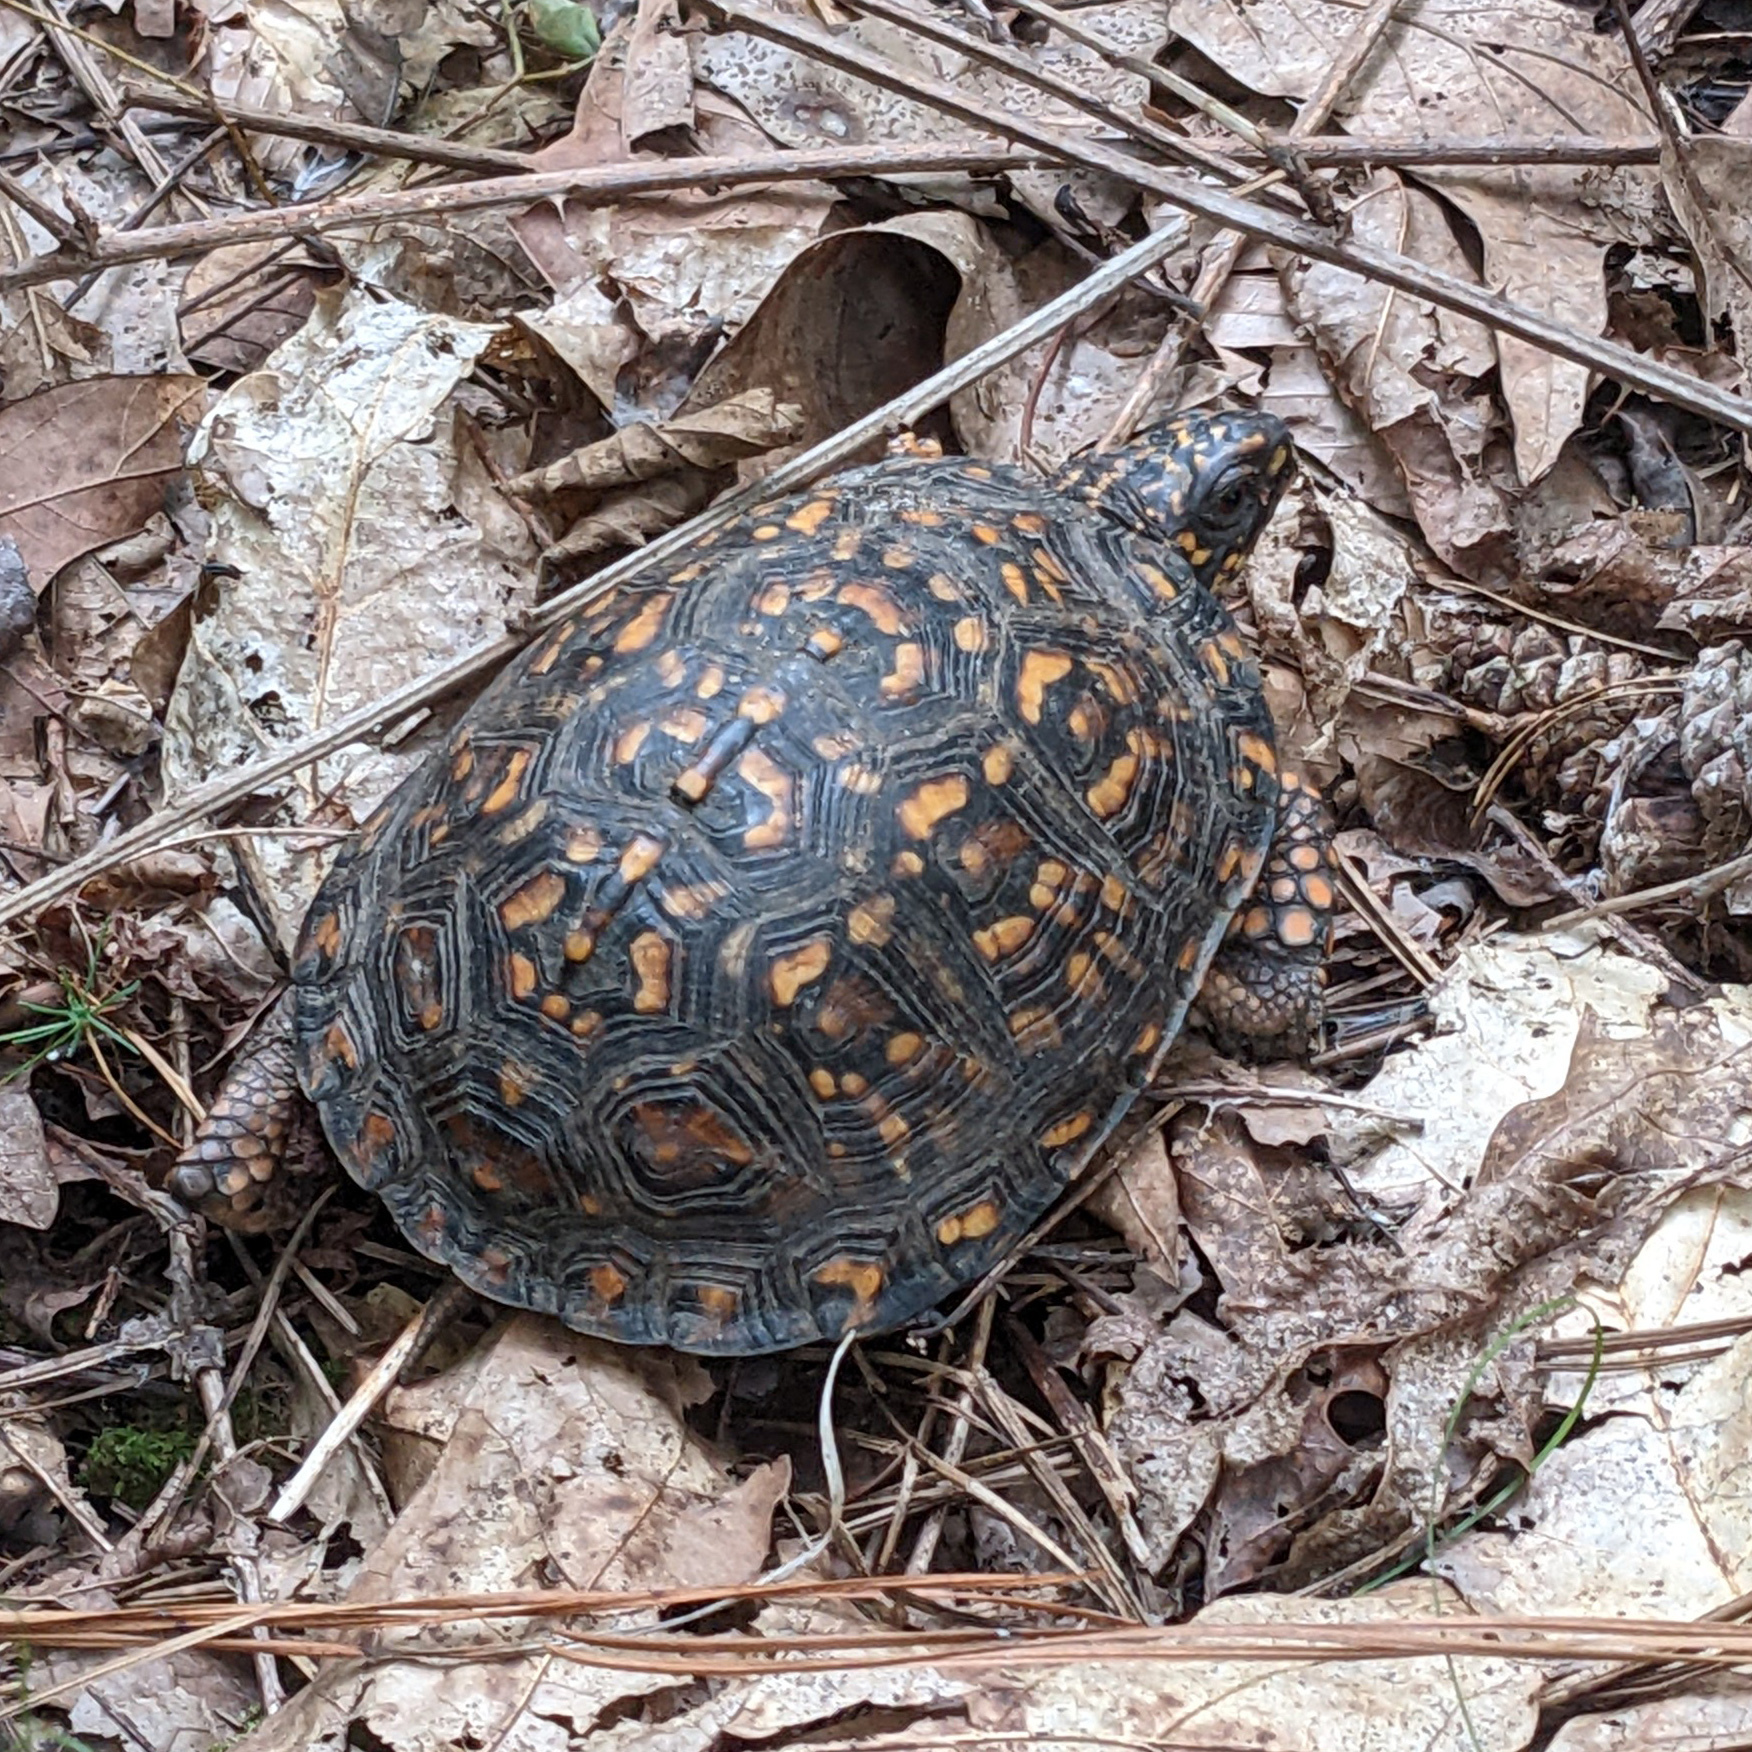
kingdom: Animalia
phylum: Chordata
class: Testudines
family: Emydidae
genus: Terrapene
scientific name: Terrapene carolina
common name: Common box turtle
